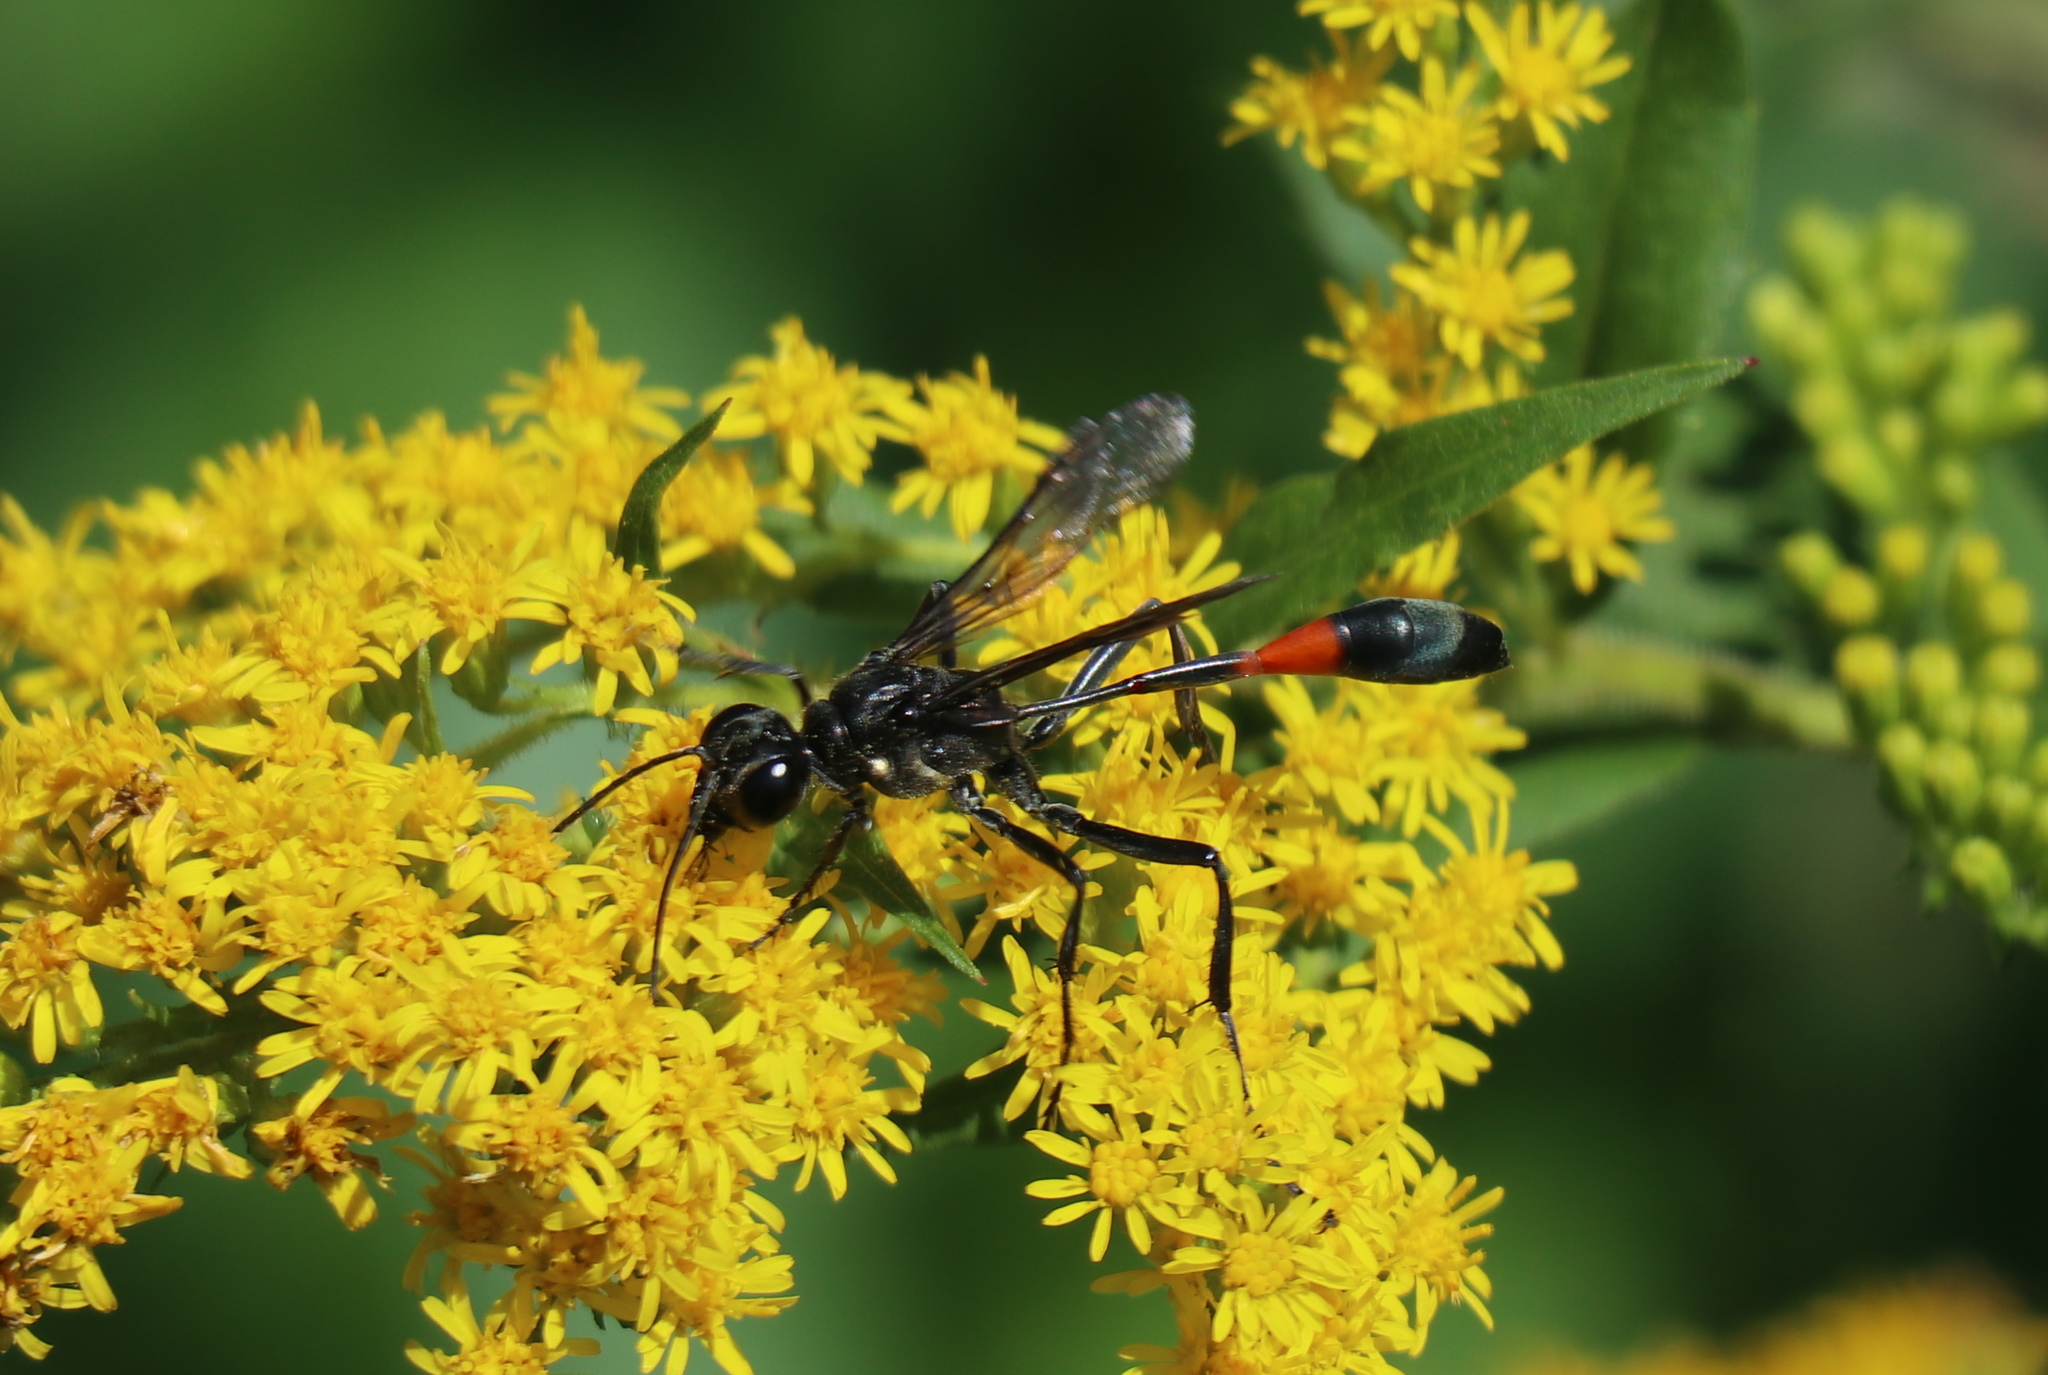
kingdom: Animalia
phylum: Arthropoda
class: Insecta
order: Hymenoptera
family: Sphecidae
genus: Ammophila
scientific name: Ammophila procera
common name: Common thread-waisted wasp
